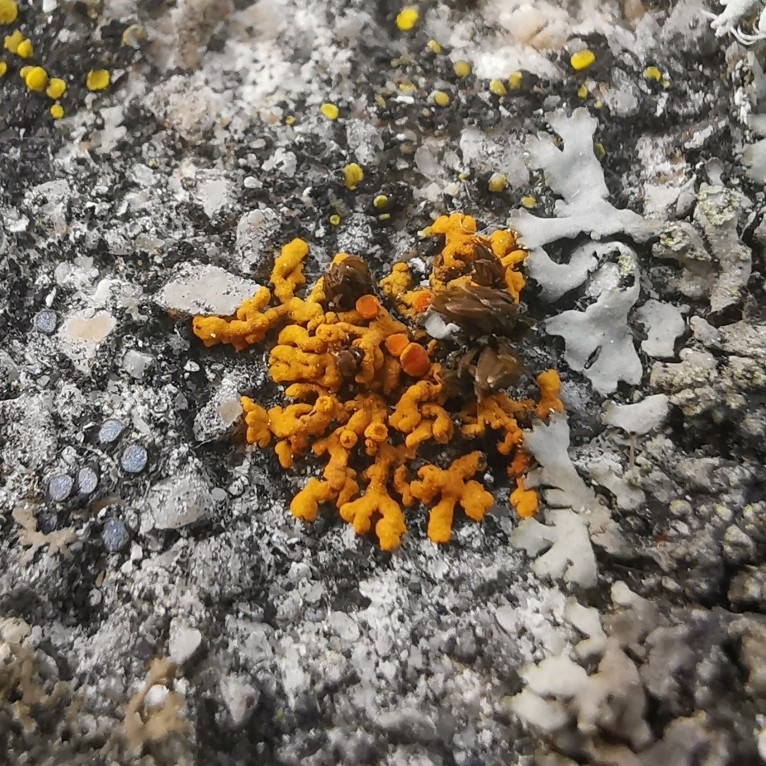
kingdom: Fungi
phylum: Ascomycota
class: Lecanoromycetes
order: Teloschistales
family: Teloschistaceae
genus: Xanthoria
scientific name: Xanthoria elegans
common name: Elegant sunburst lichen
